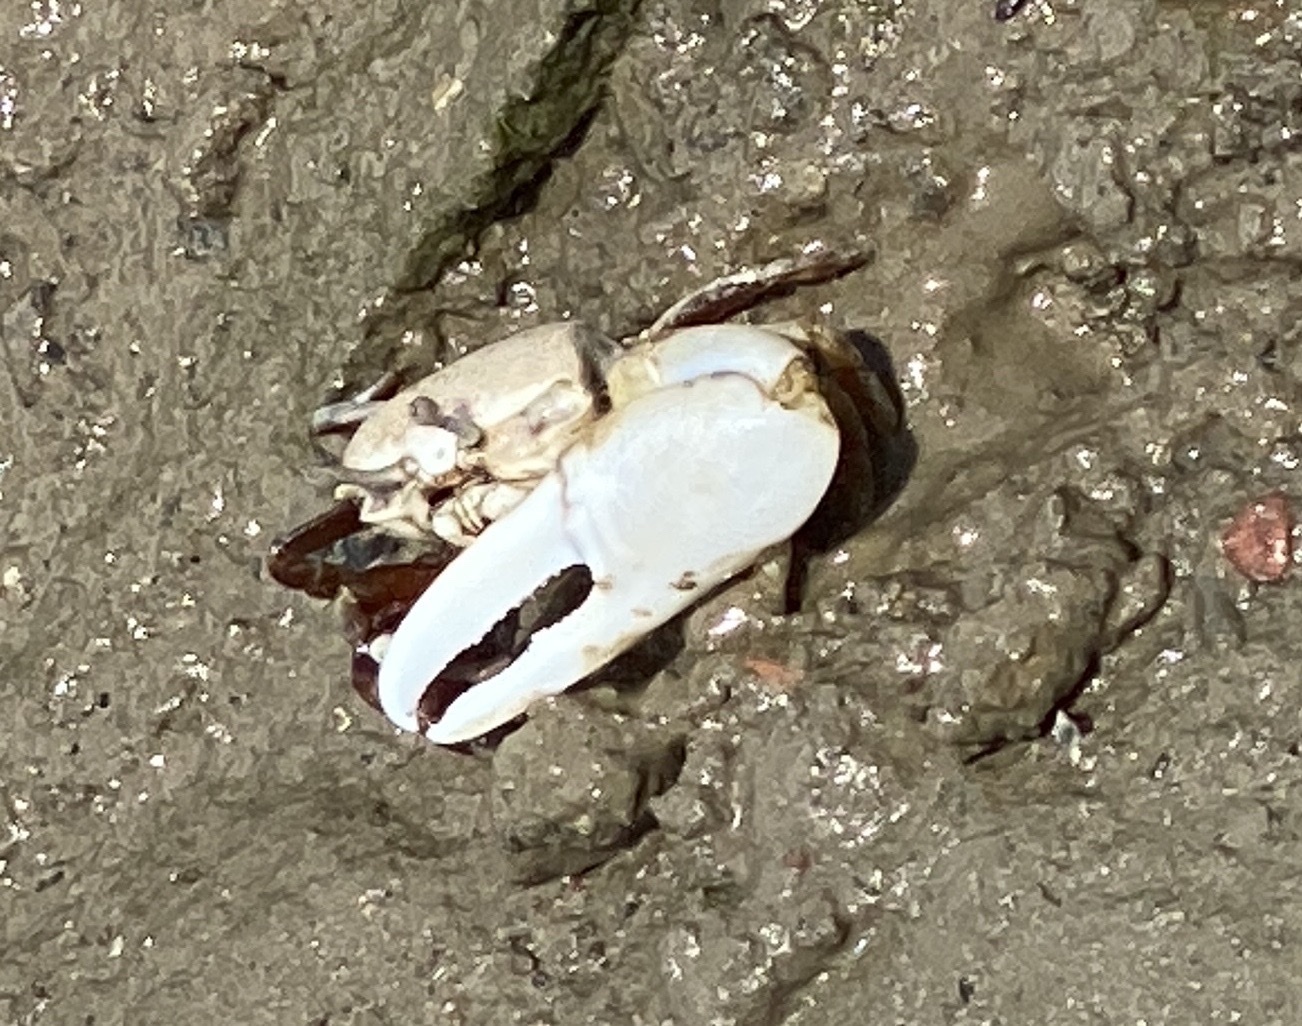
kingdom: Animalia
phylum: Arthropoda
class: Malacostraca
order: Decapoda
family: Ocypodidae
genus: Austruca
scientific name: Austruca lactea
